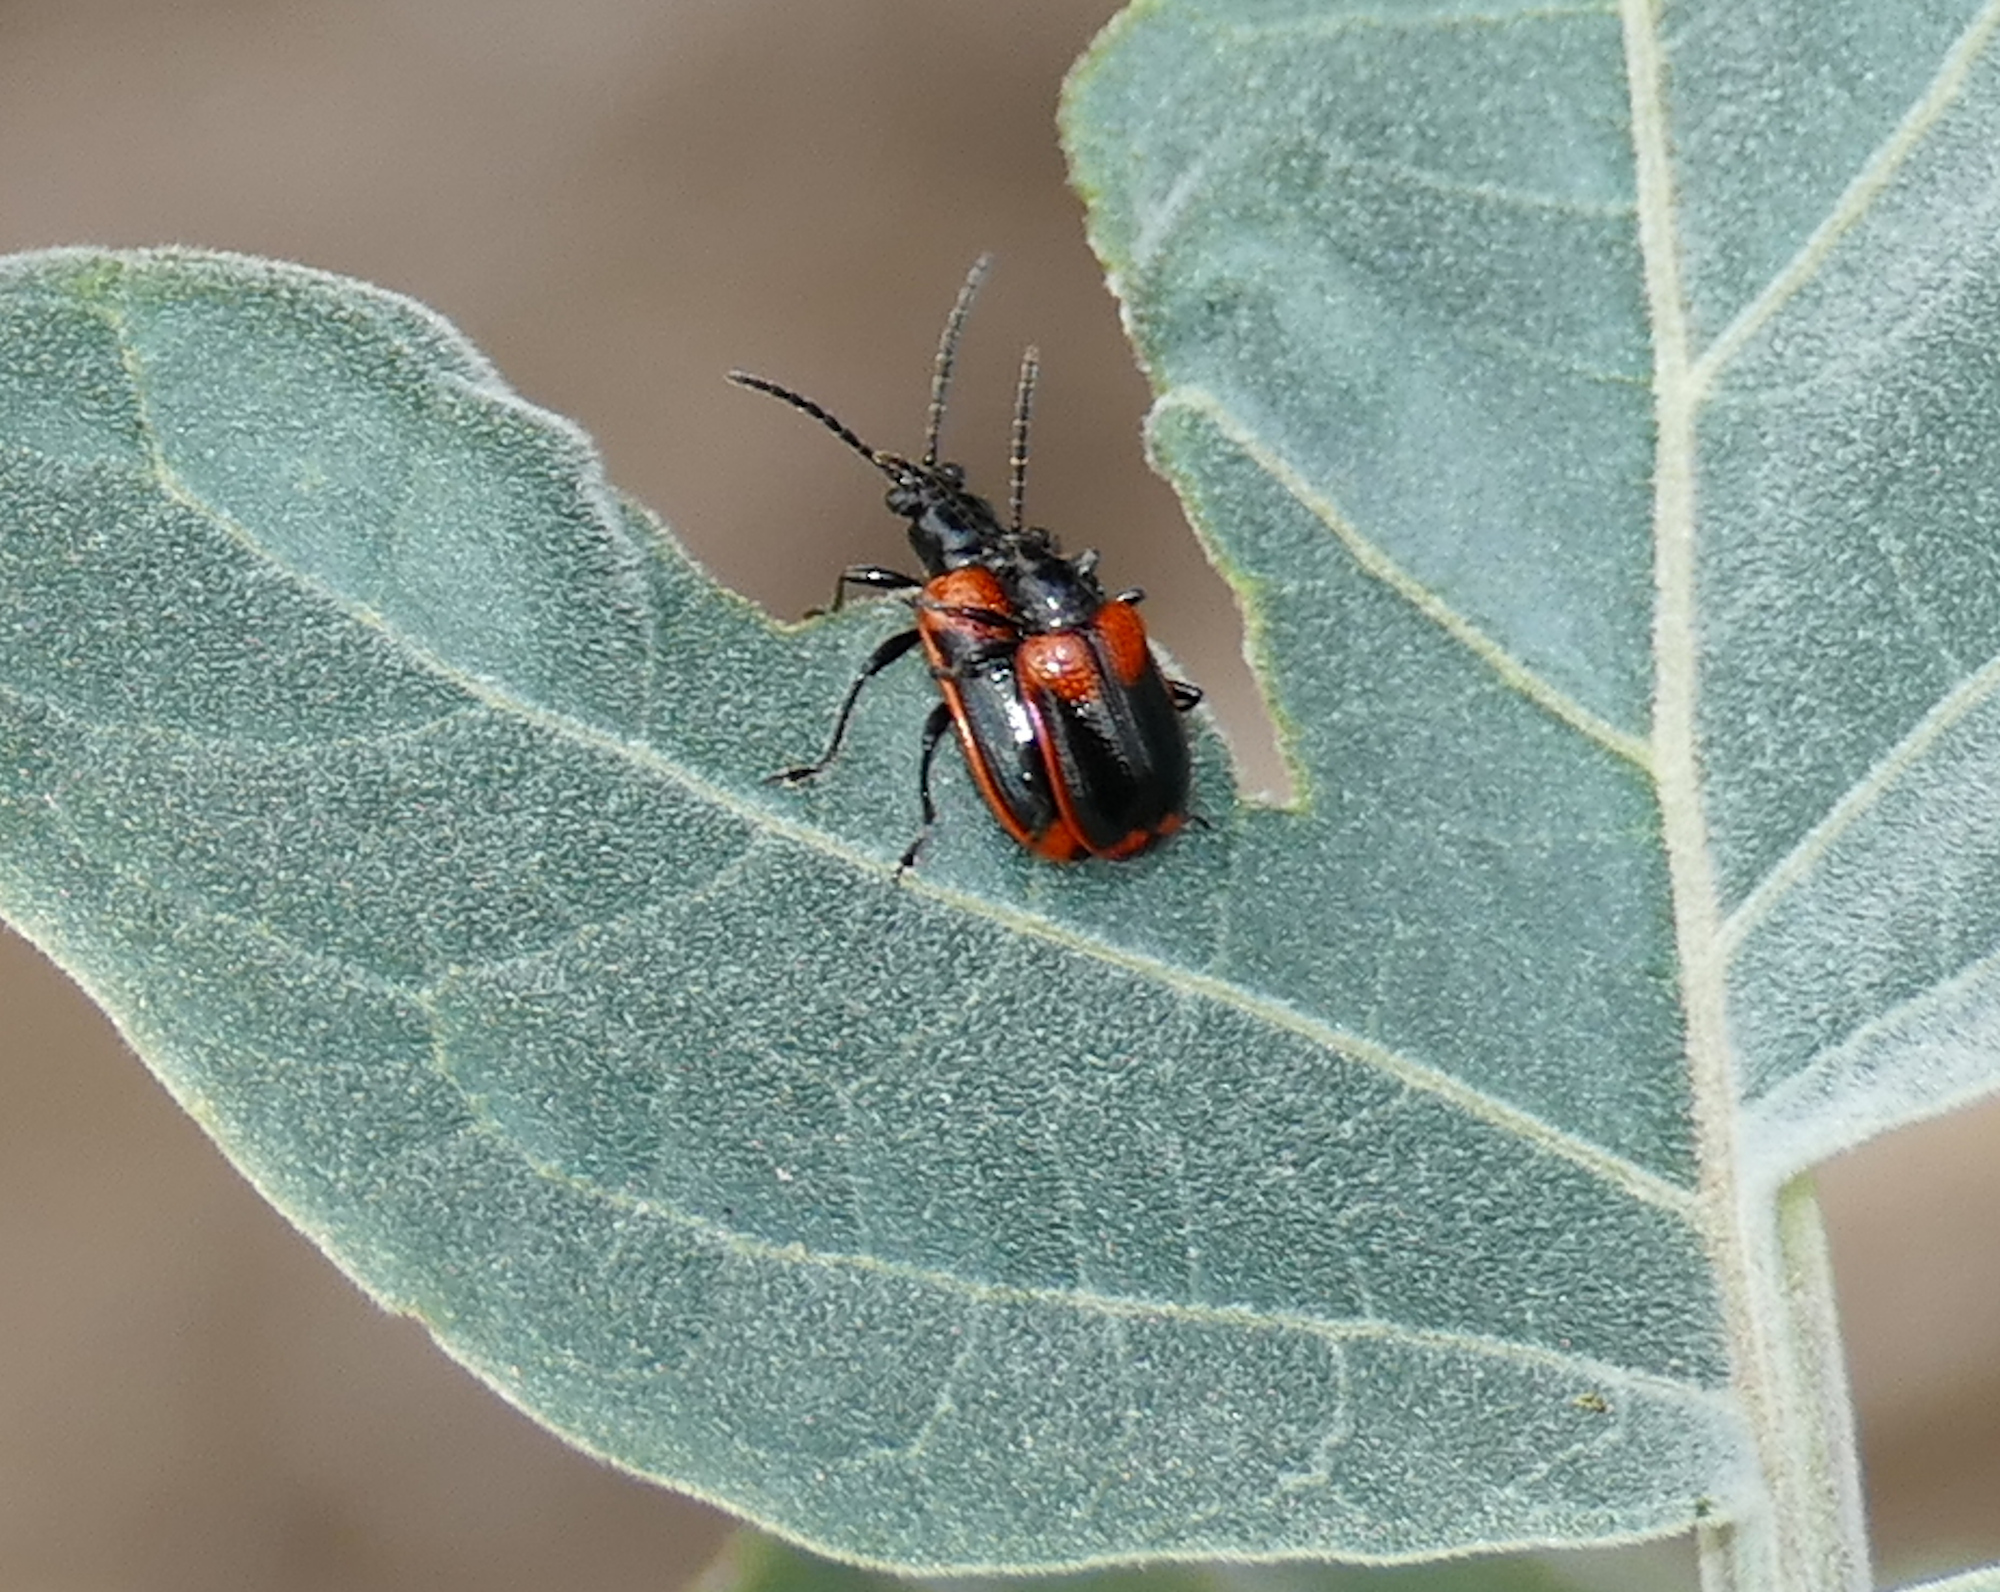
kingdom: Animalia
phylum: Arthropoda
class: Insecta
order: Coleoptera
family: Chrysomelidae
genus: Lema
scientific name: Lema confusa
